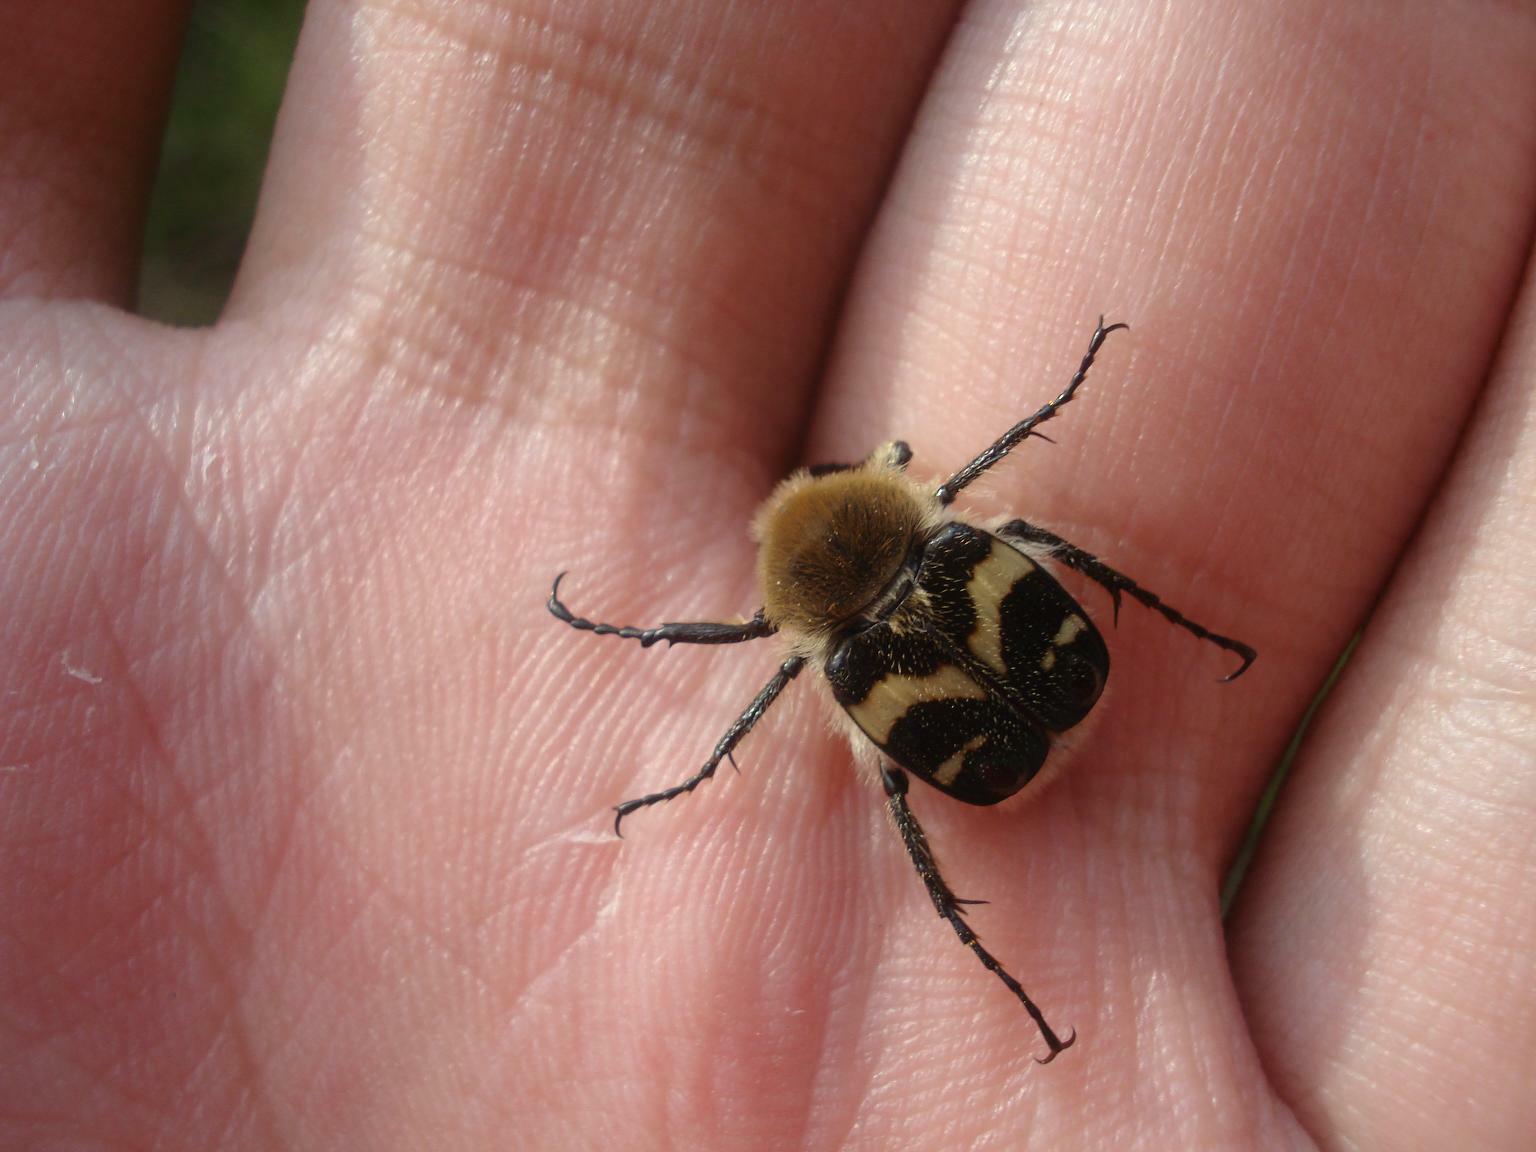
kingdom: Animalia
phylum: Arthropoda
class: Insecta
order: Coleoptera
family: Scarabaeidae
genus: Trichius
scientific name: Trichius fasciatus
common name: Bee beetle
